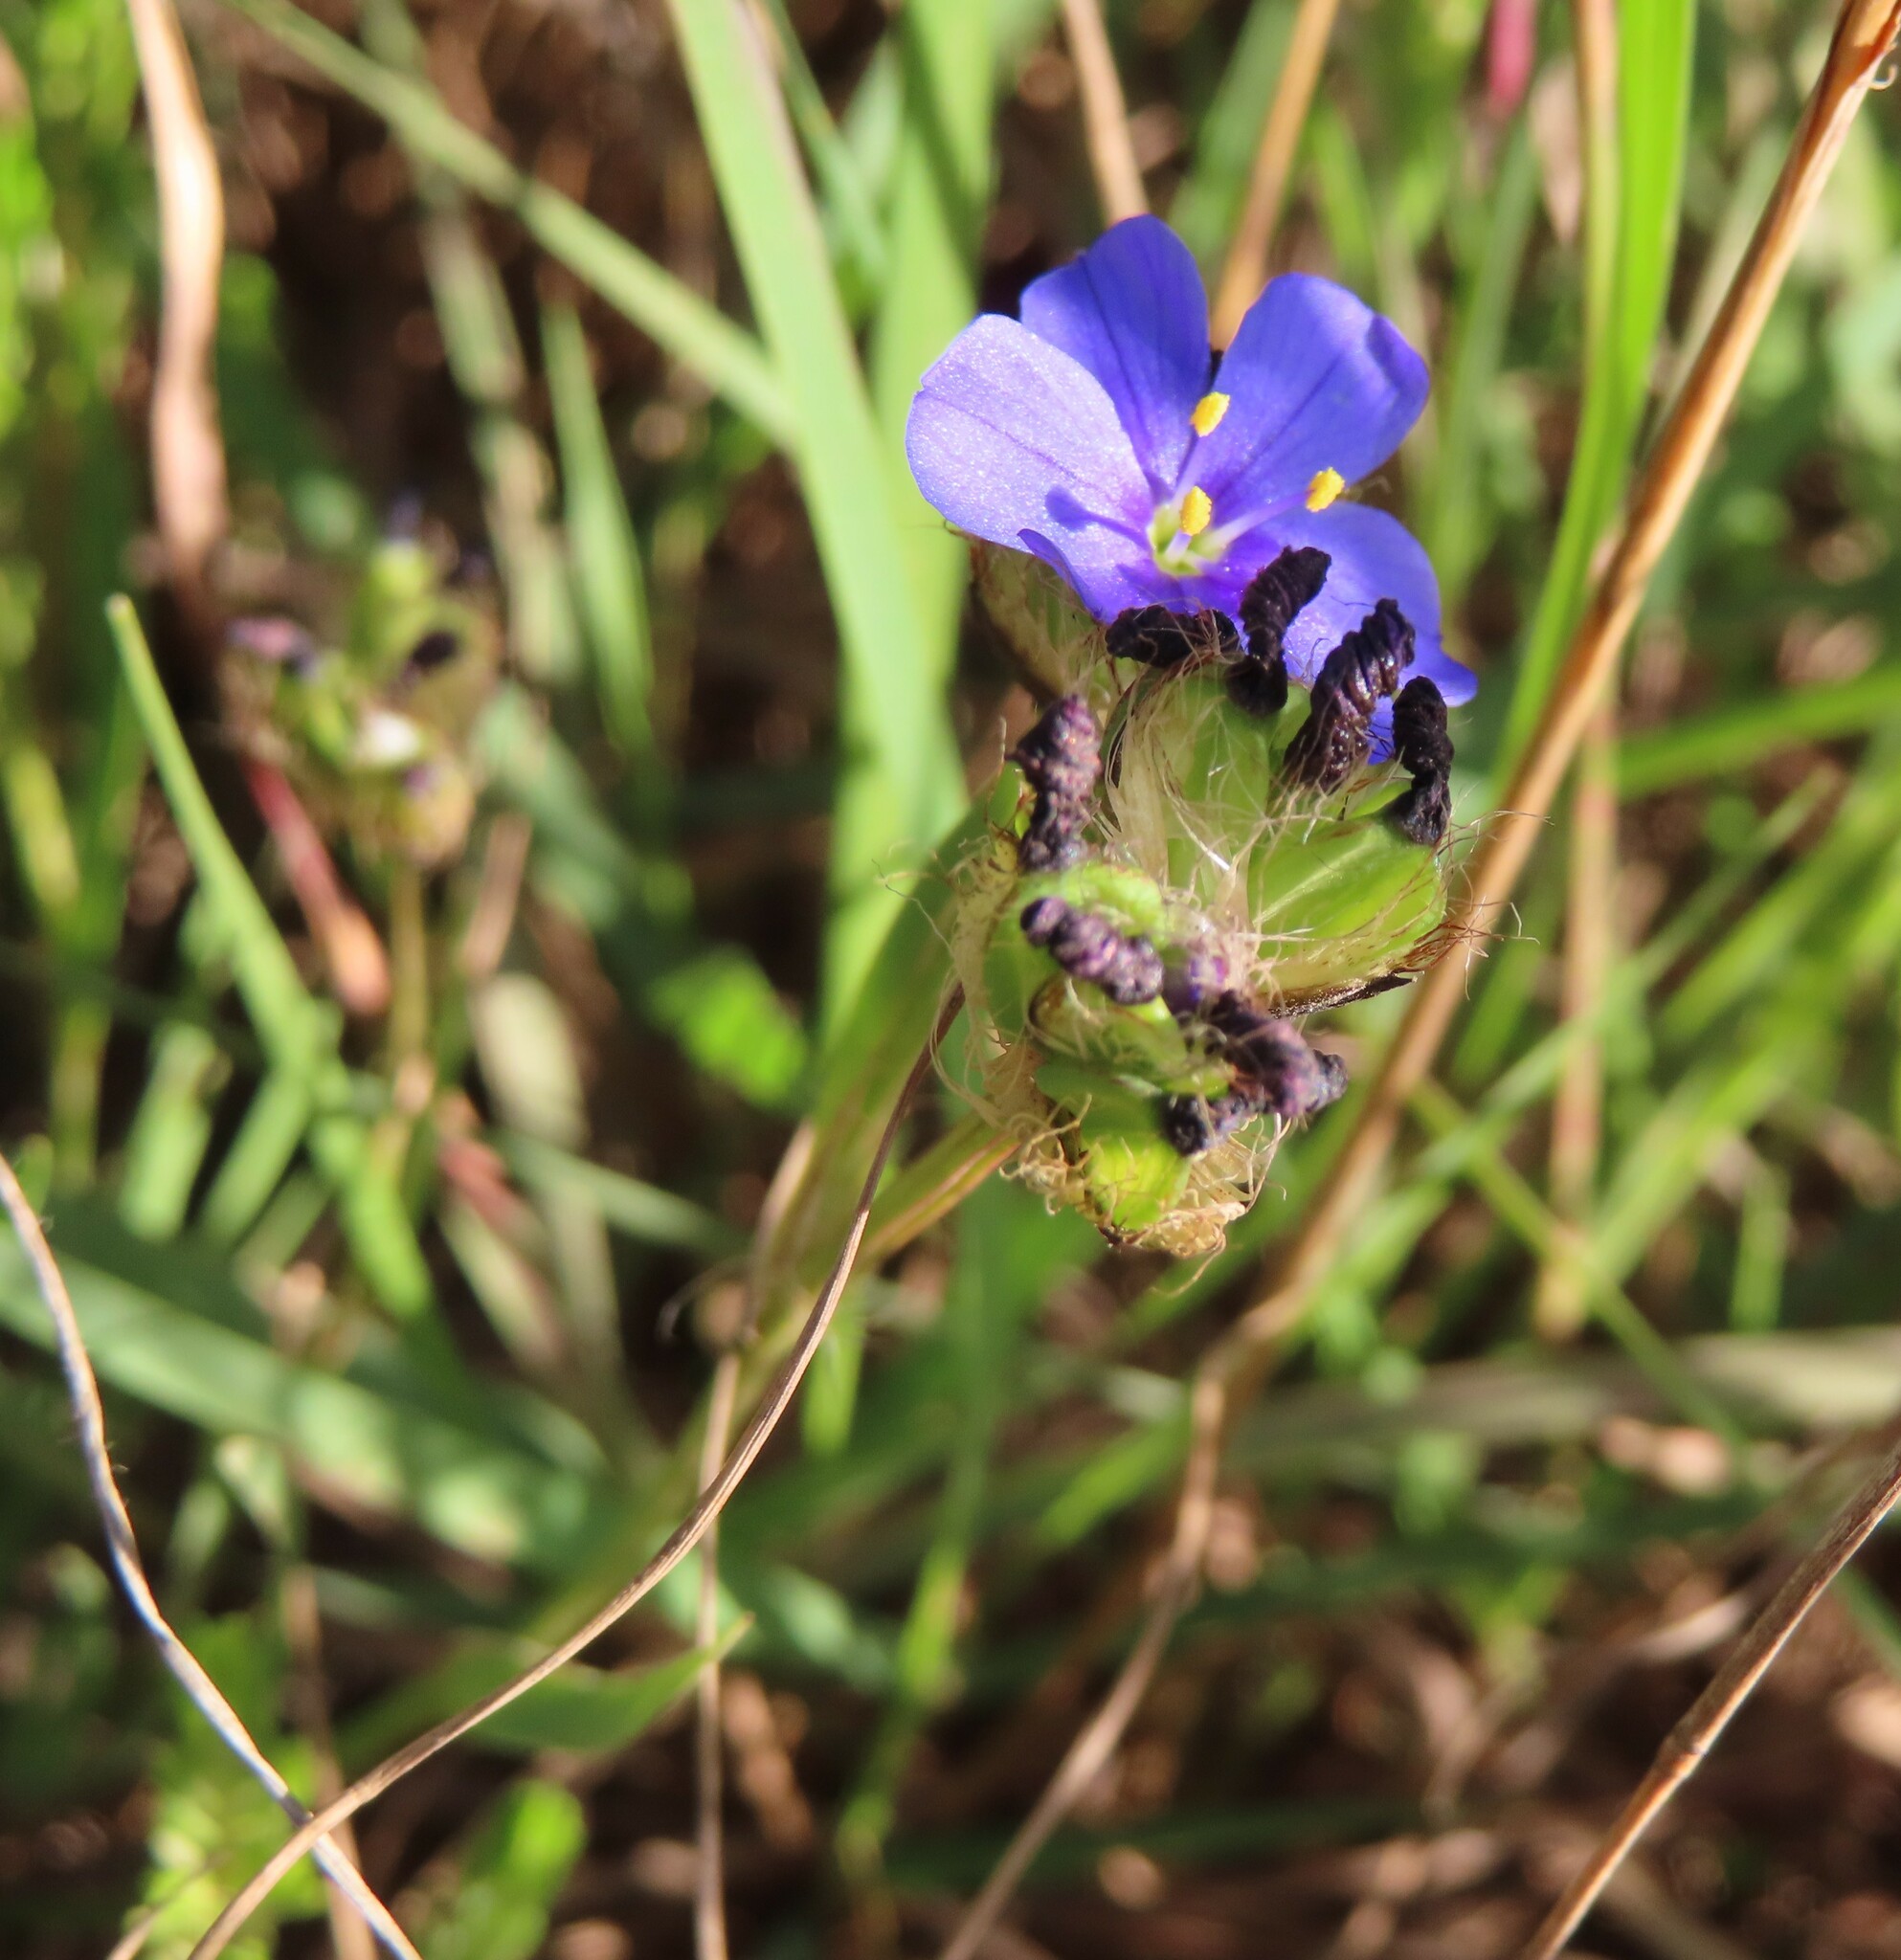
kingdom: Plantae
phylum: Tracheophyta
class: Liliopsida
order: Asparagales
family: Iridaceae
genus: Aristea
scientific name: Aristea africana
